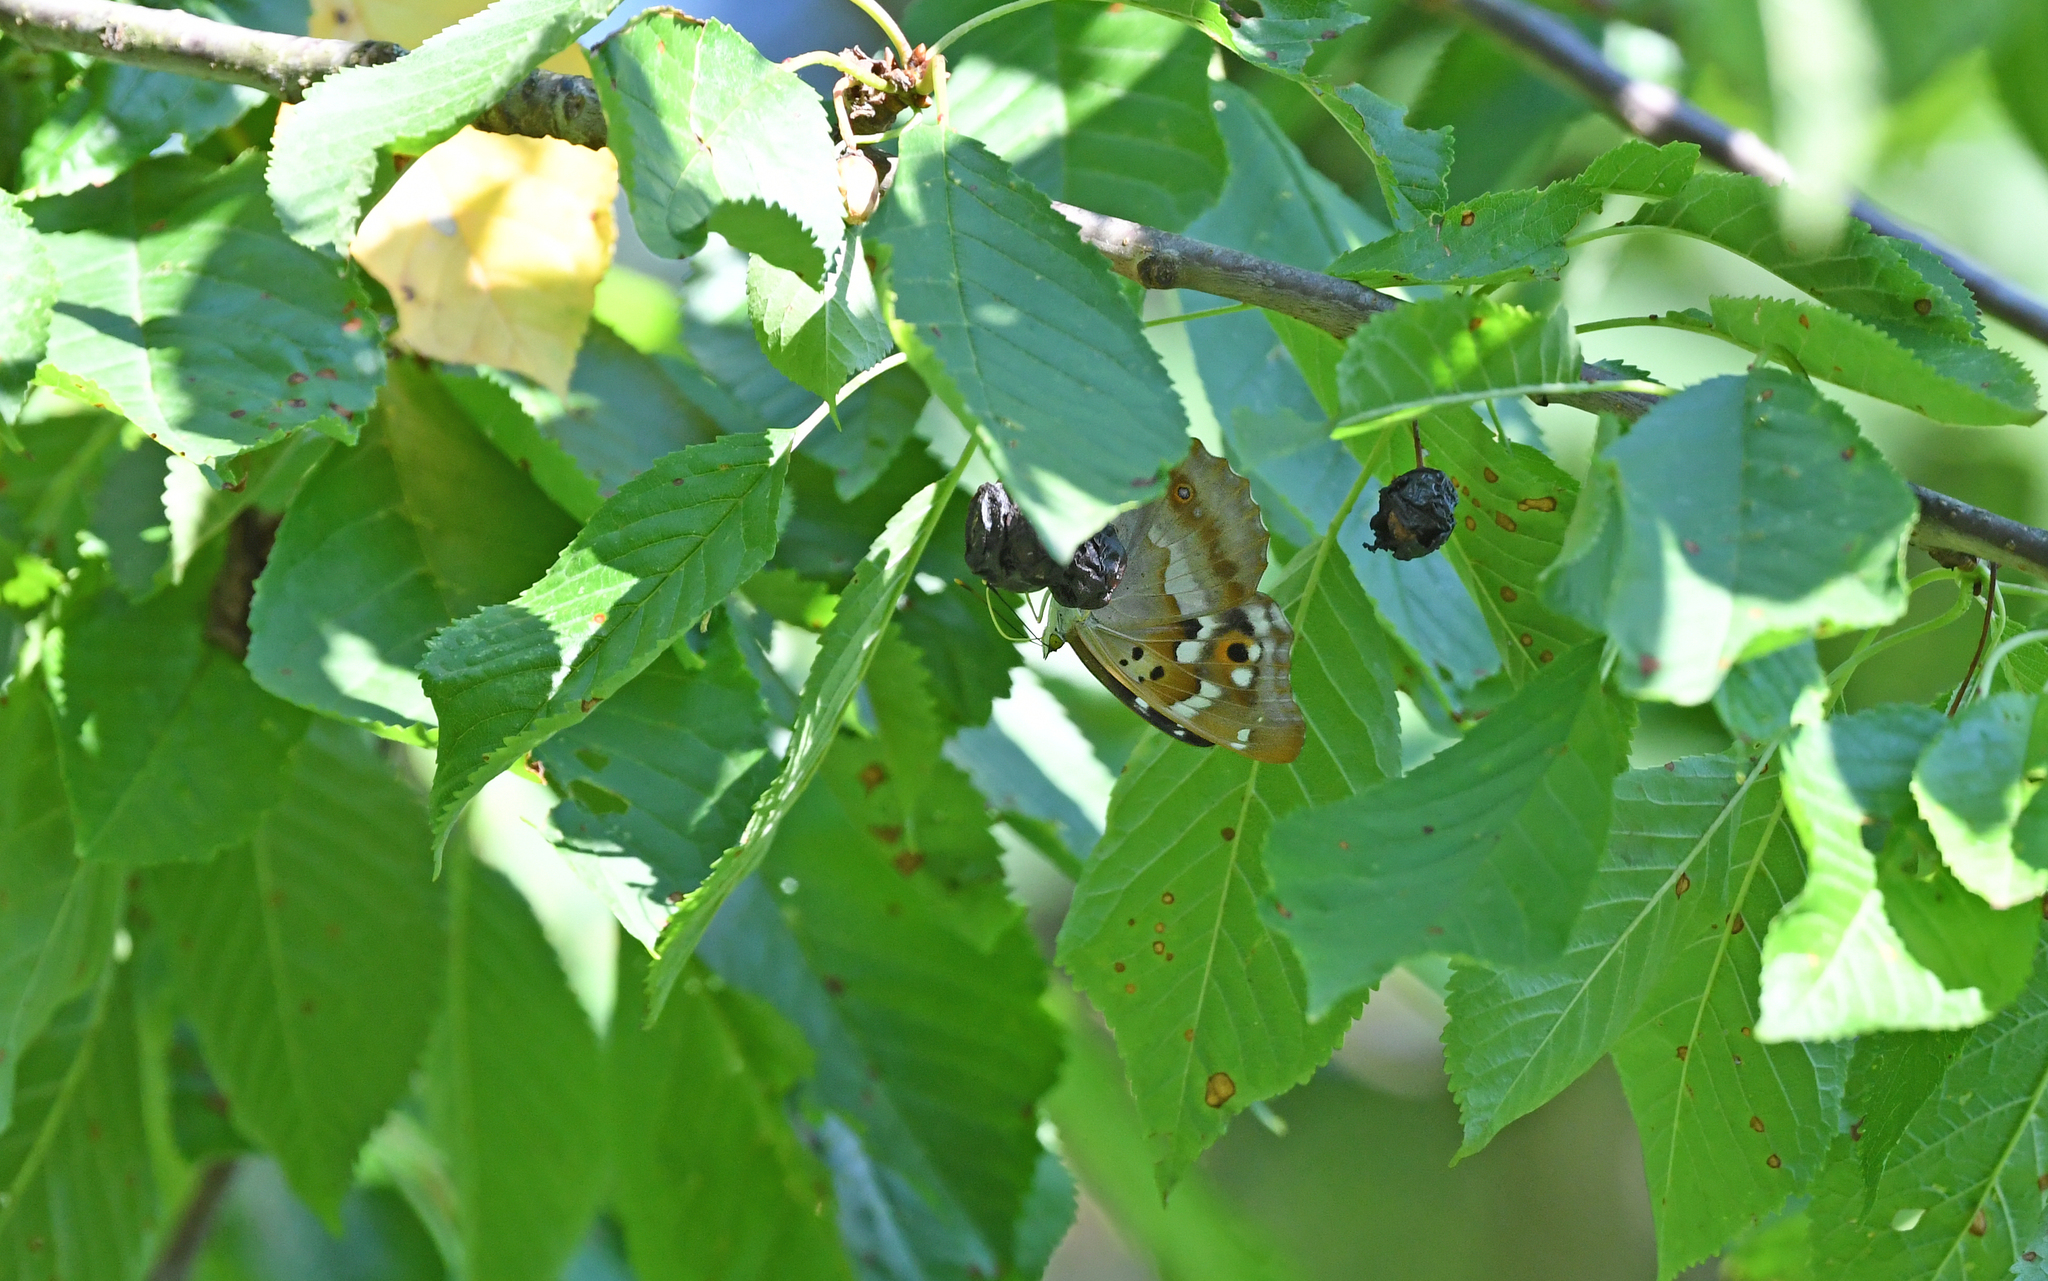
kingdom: Animalia
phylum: Arthropoda
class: Insecta
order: Lepidoptera
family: Nymphalidae
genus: Apatura
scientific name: Apatura ilia
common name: Lesser purple emperor
